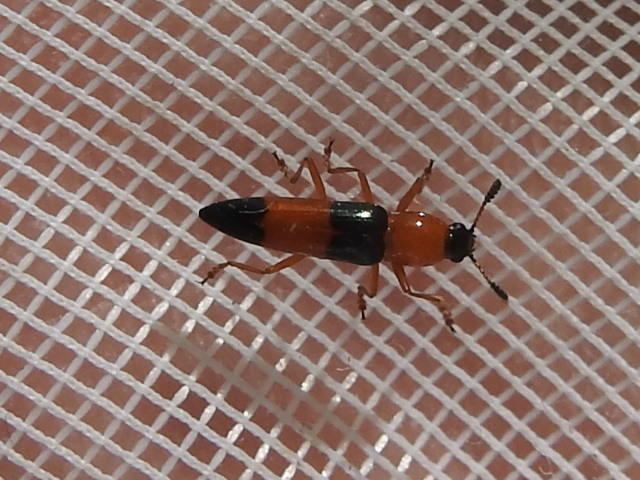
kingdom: Animalia
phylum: Arthropoda
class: Insecta
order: Coleoptera
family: Erotylidae
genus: Languria
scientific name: Languria trifasciata
